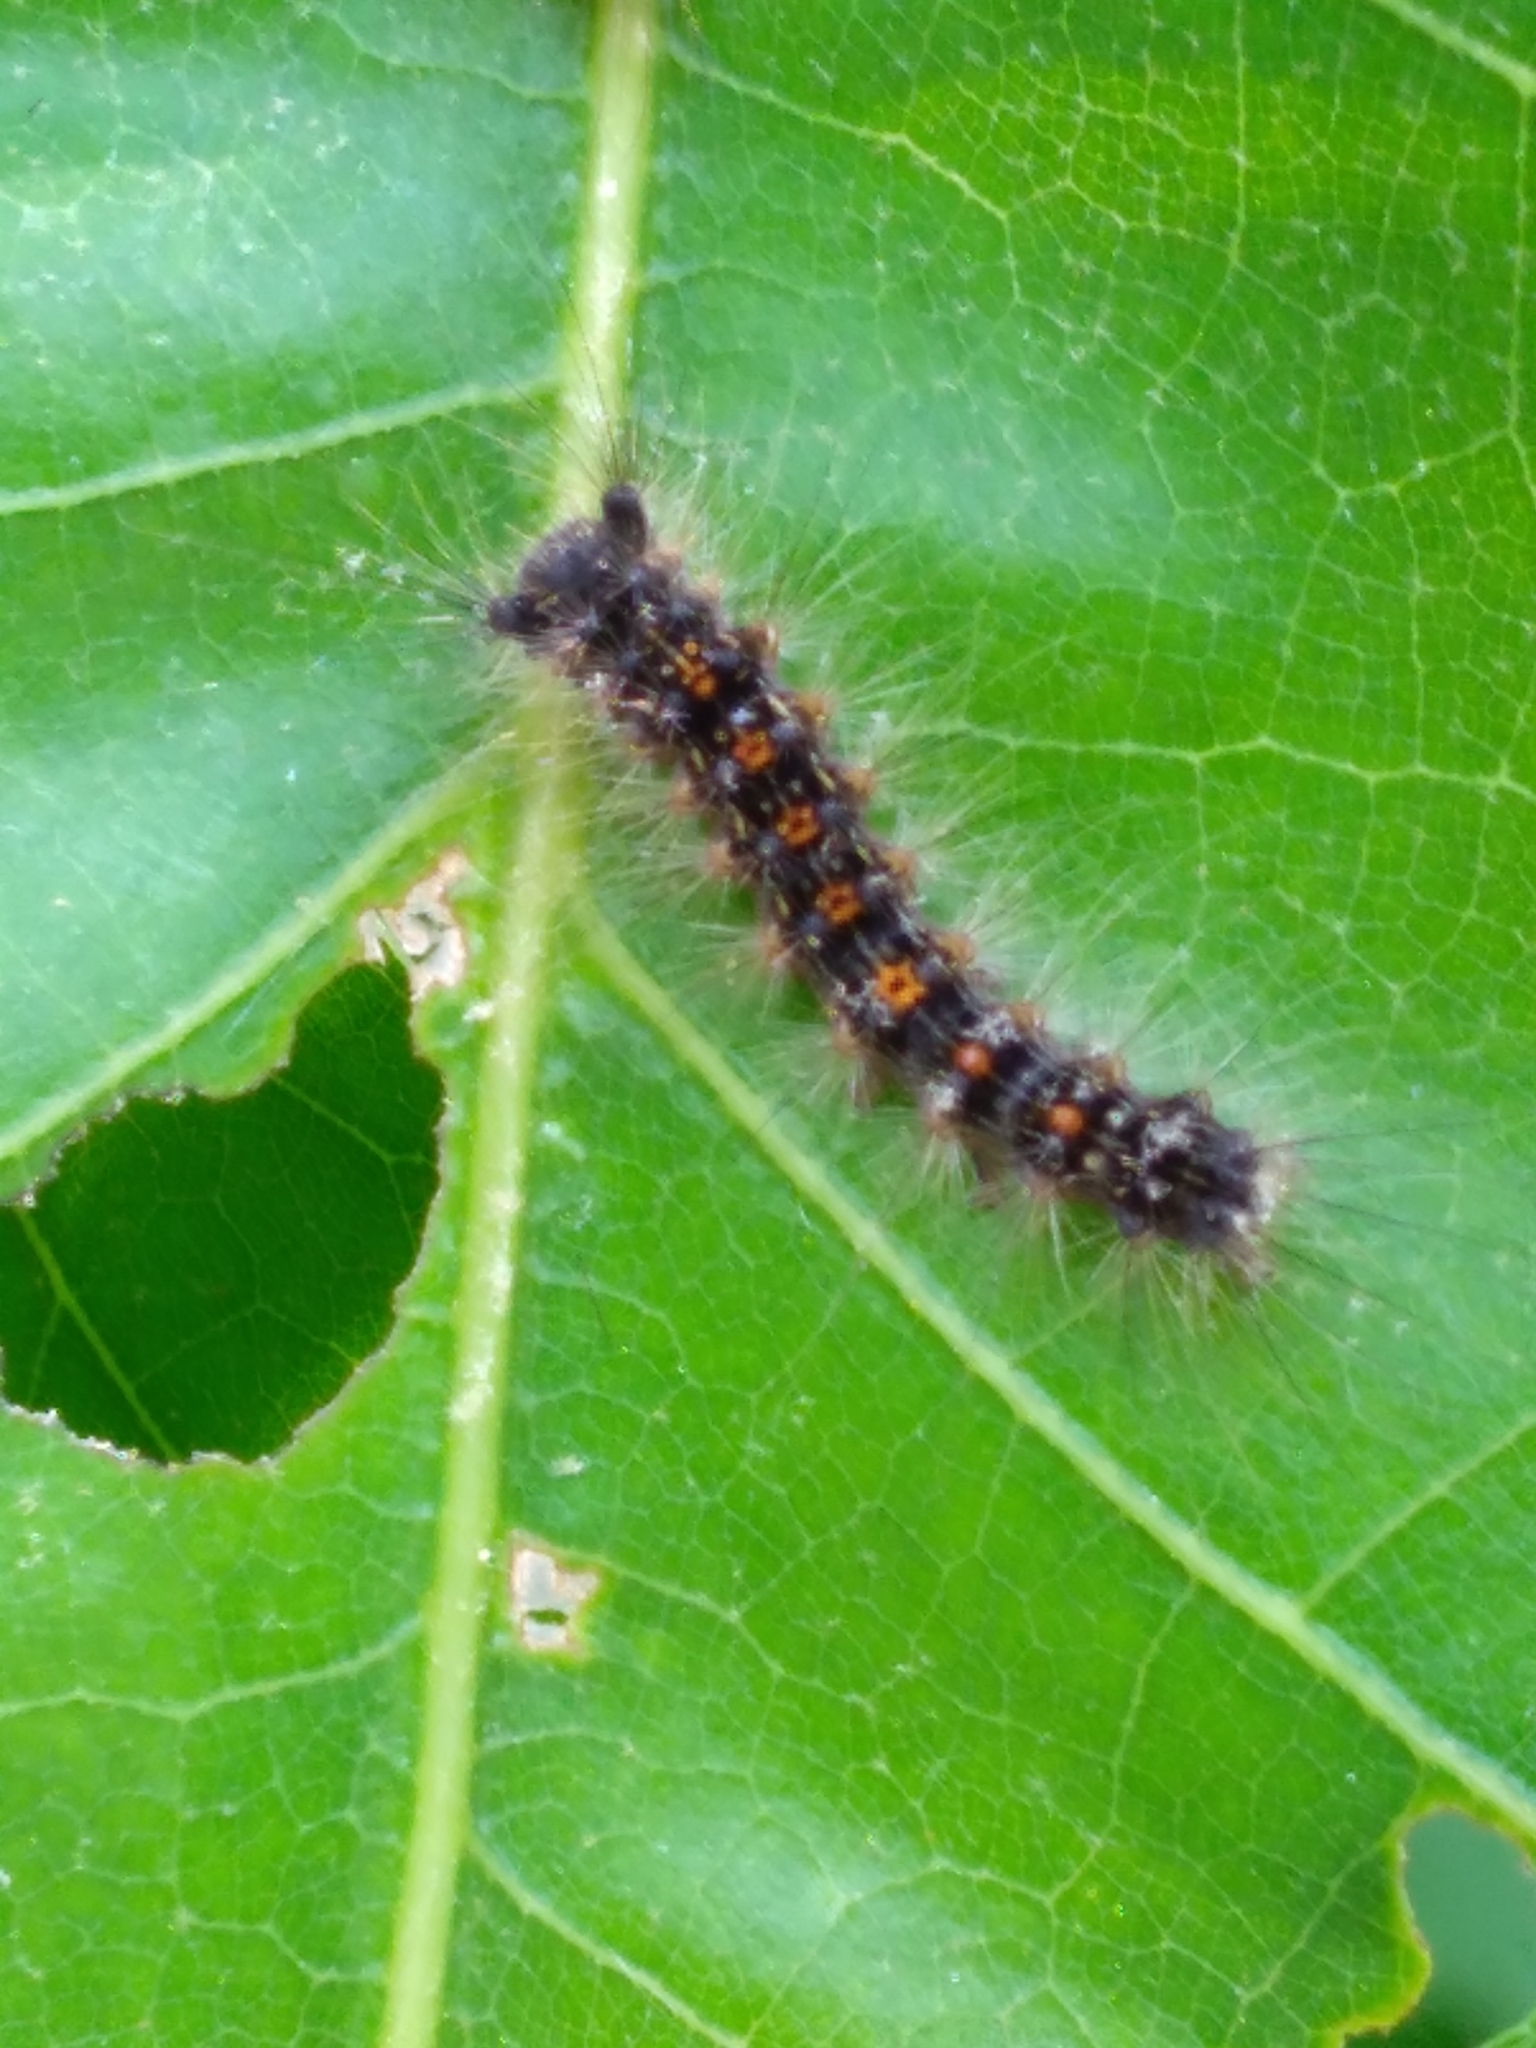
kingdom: Animalia
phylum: Arthropoda
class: Insecta
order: Lepidoptera
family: Erebidae
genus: Lymantria
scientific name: Lymantria dispar
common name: Gypsy moth
